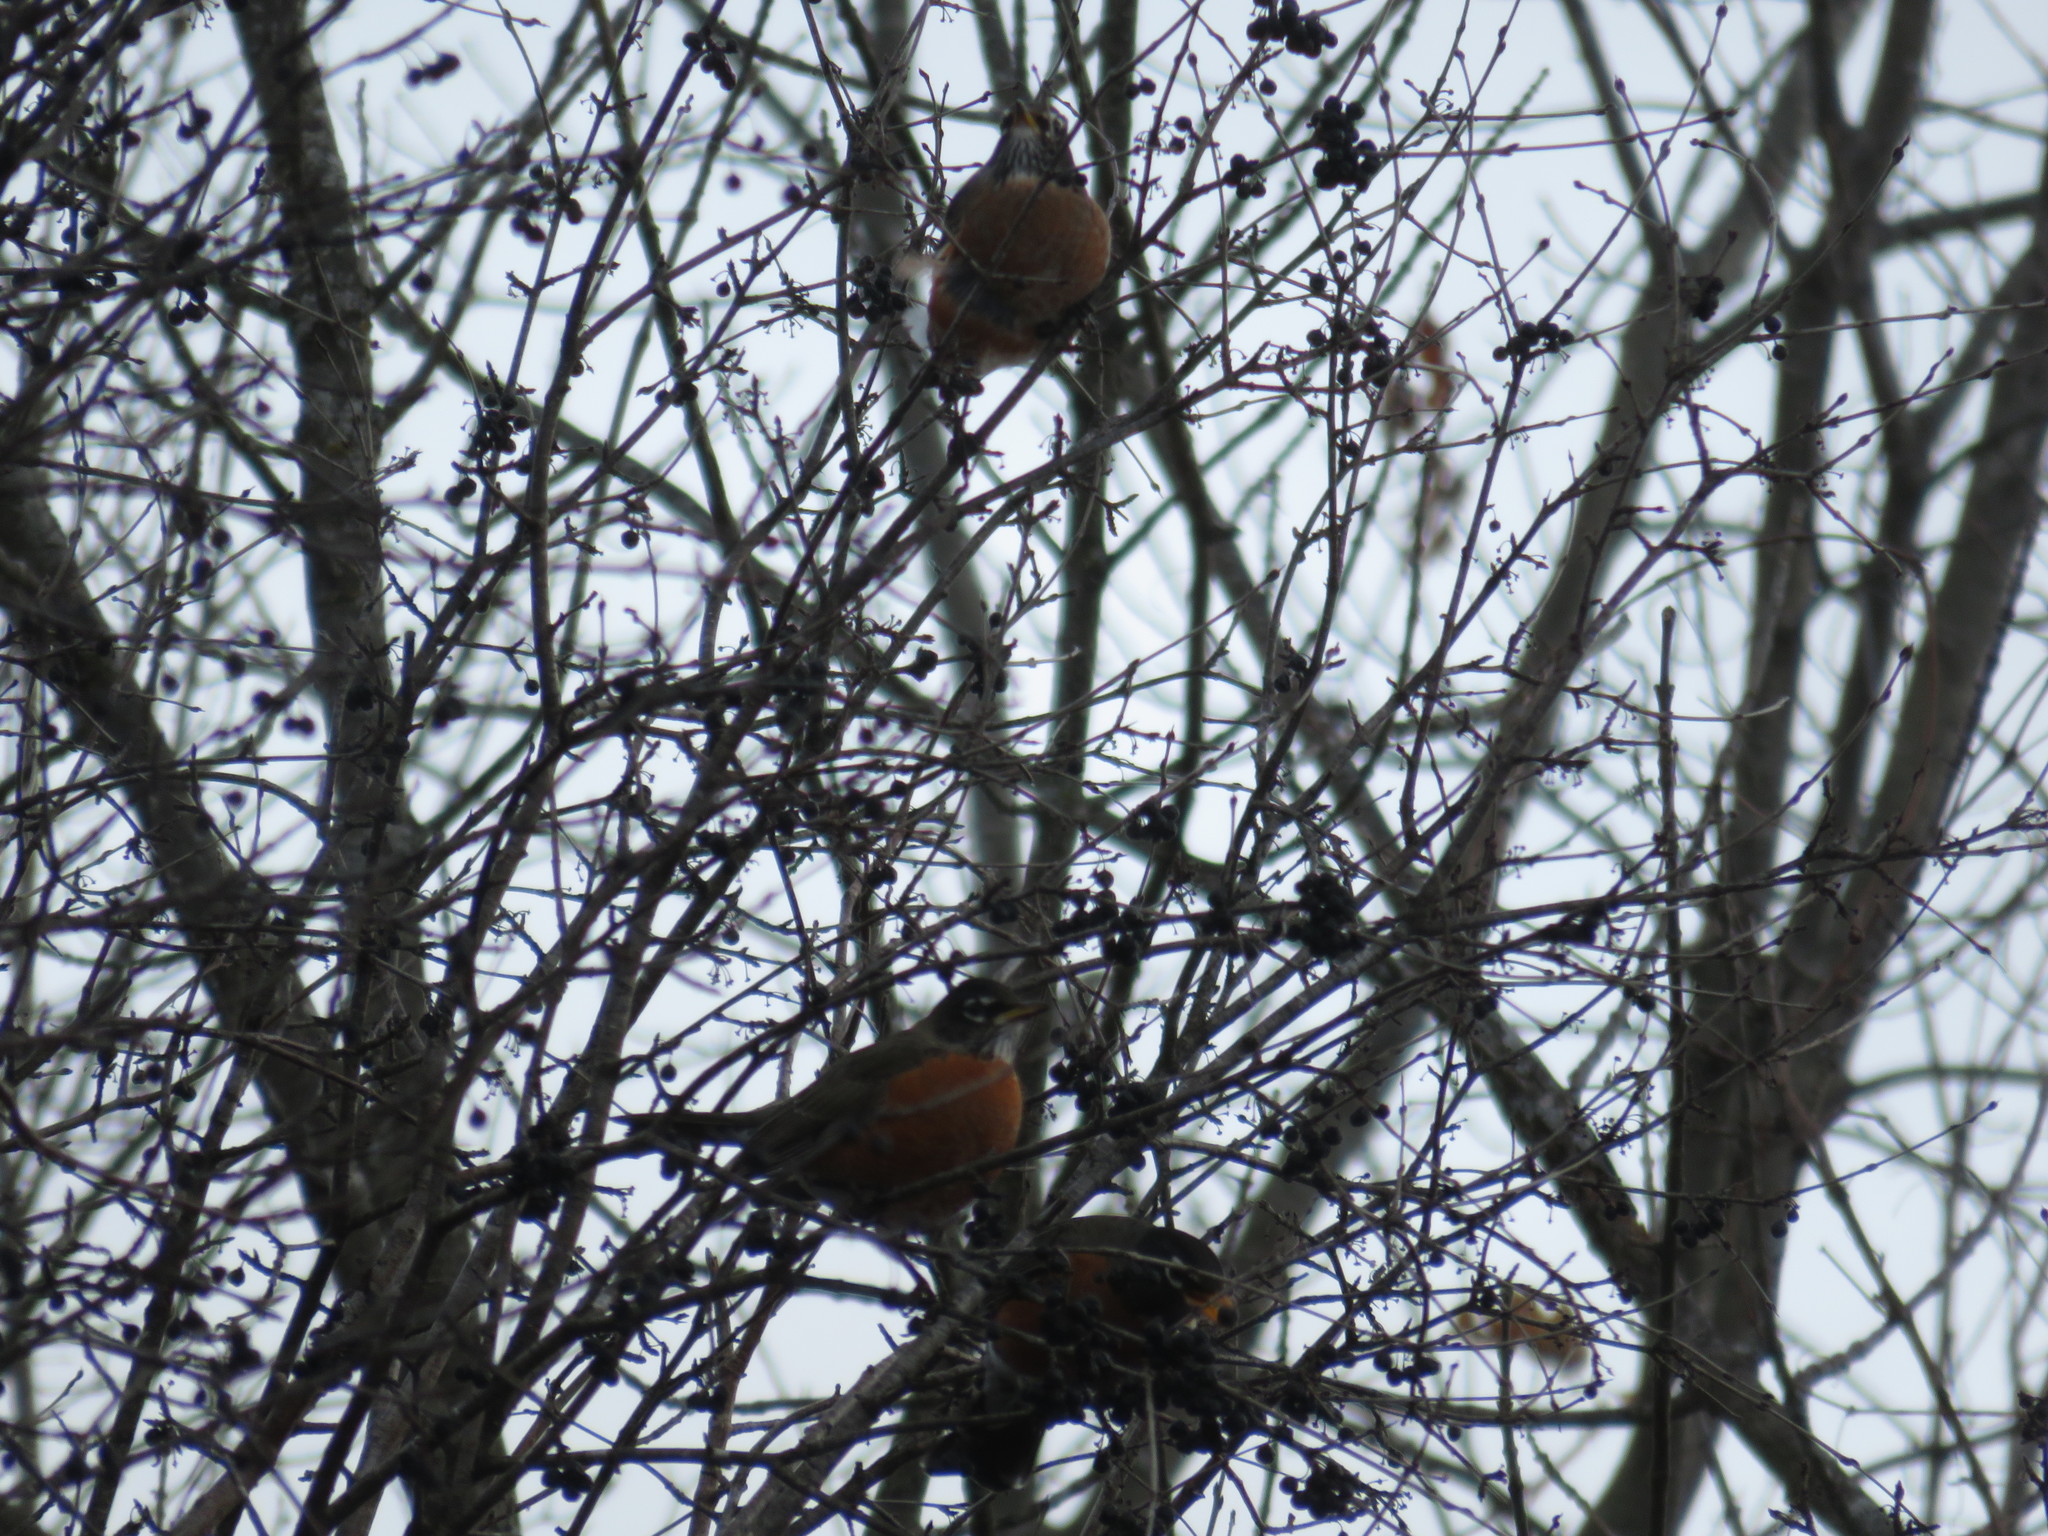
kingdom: Animalia
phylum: Chordata
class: Aves
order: Passeriformes
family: Turdidae
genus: Turdus
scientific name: Turdus migratorius
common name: American robin
